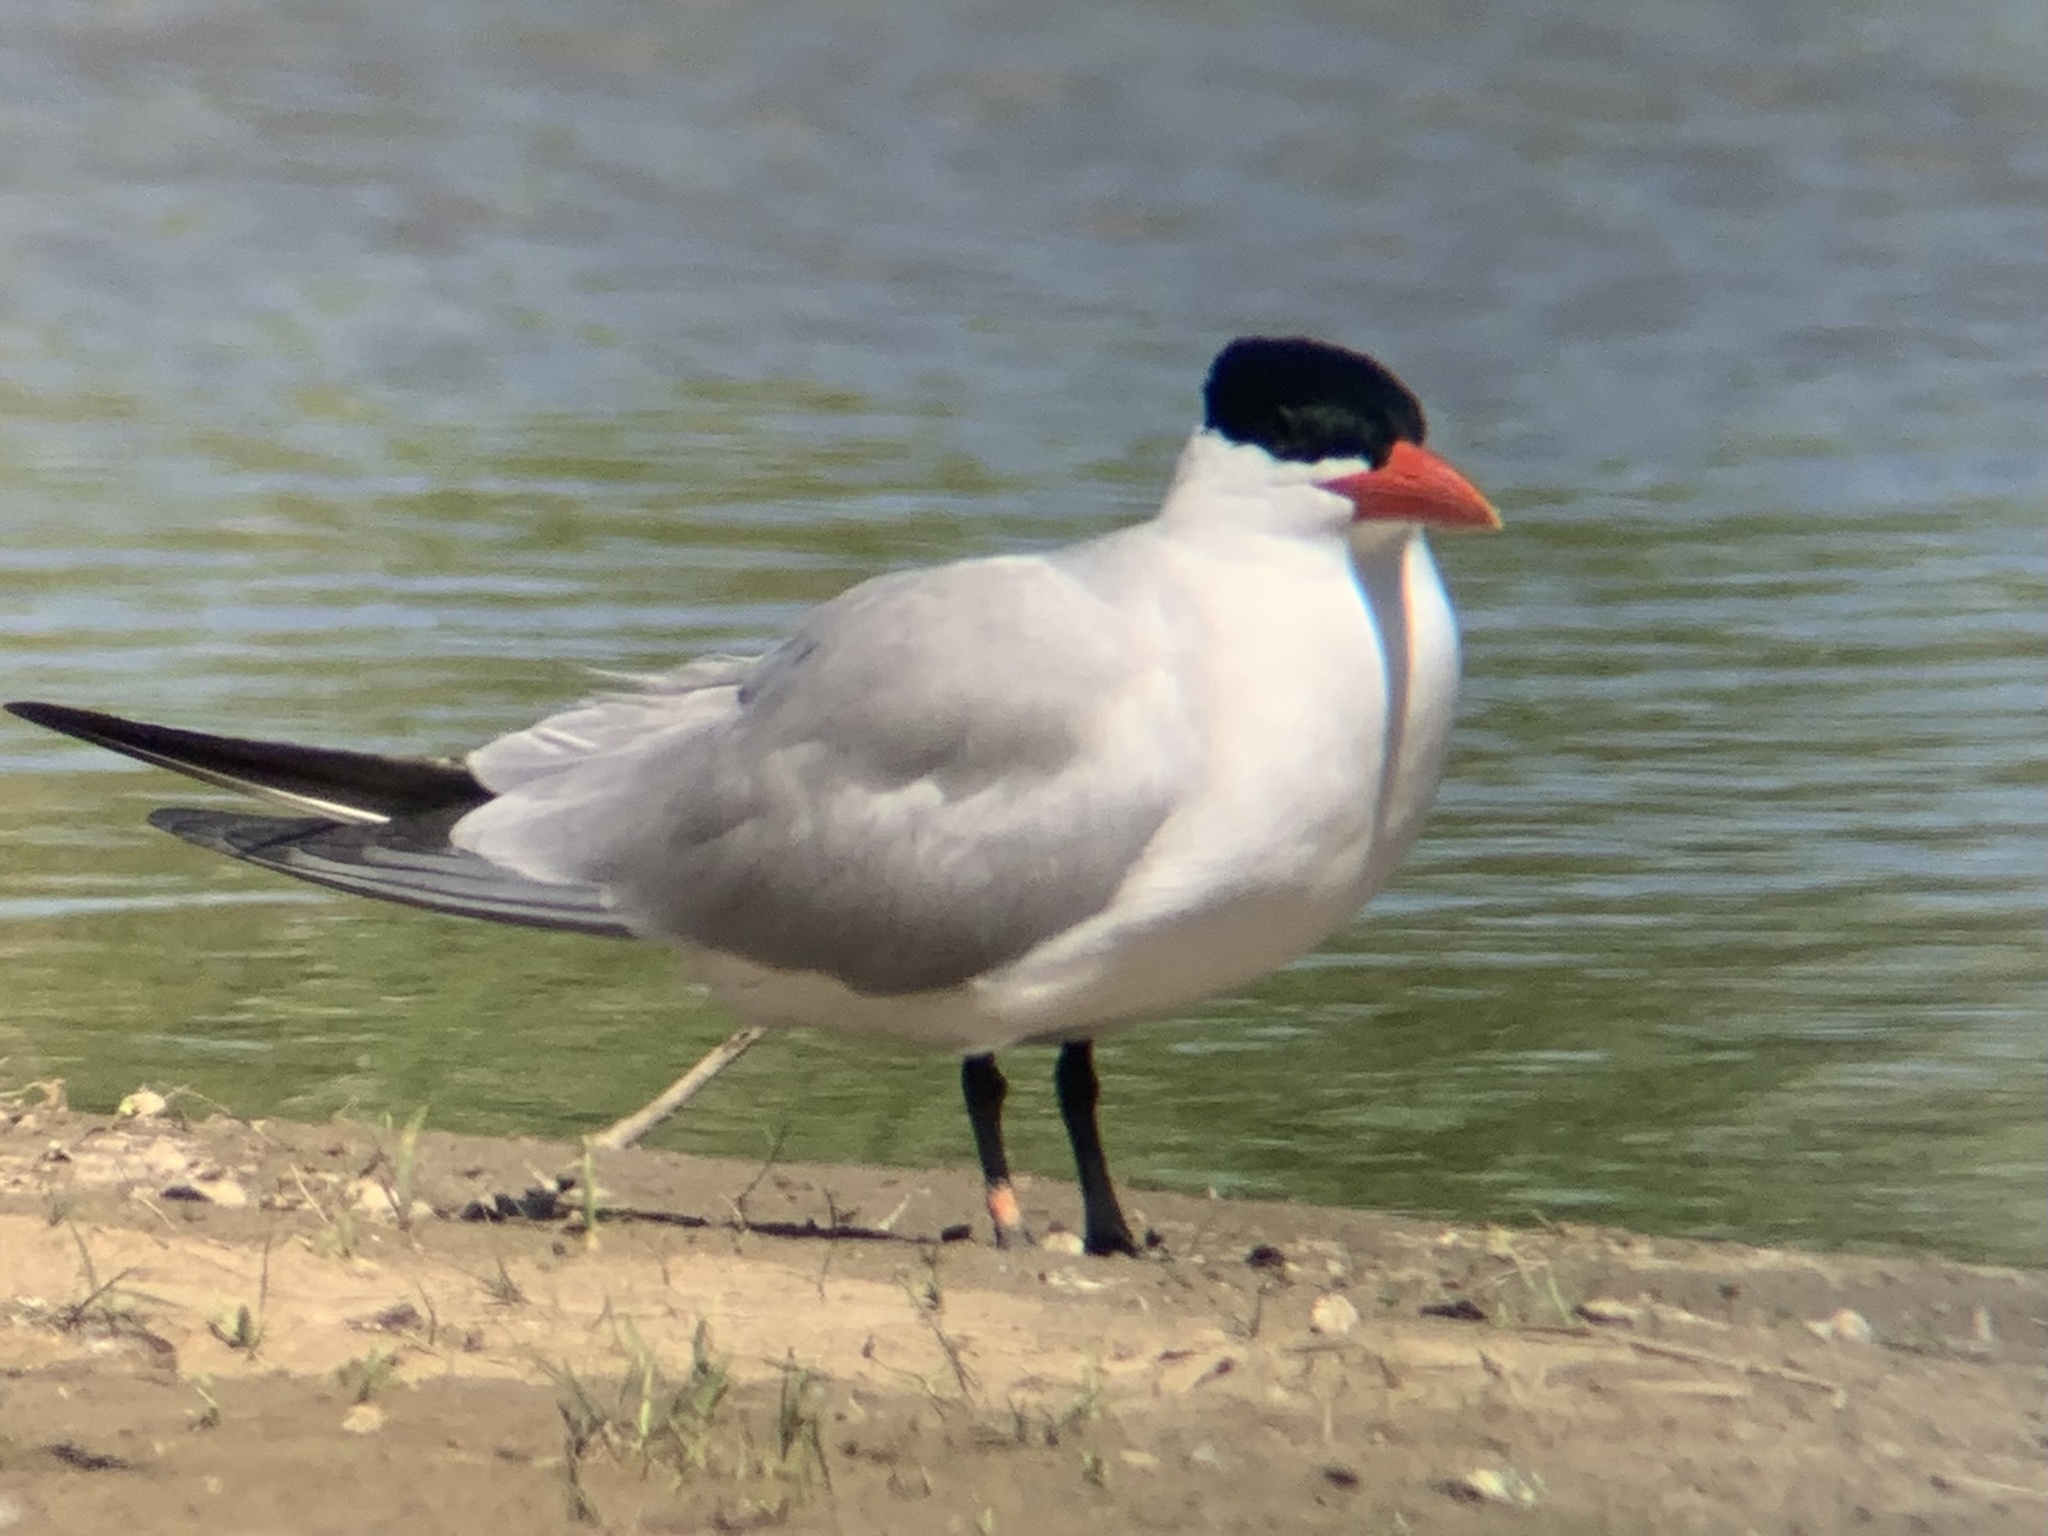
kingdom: Animalia
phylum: Chordata
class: Aves
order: Charadriiformes
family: Laridae
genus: Hydroprogne
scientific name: Hydroprogne caspia
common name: Caspian tern
